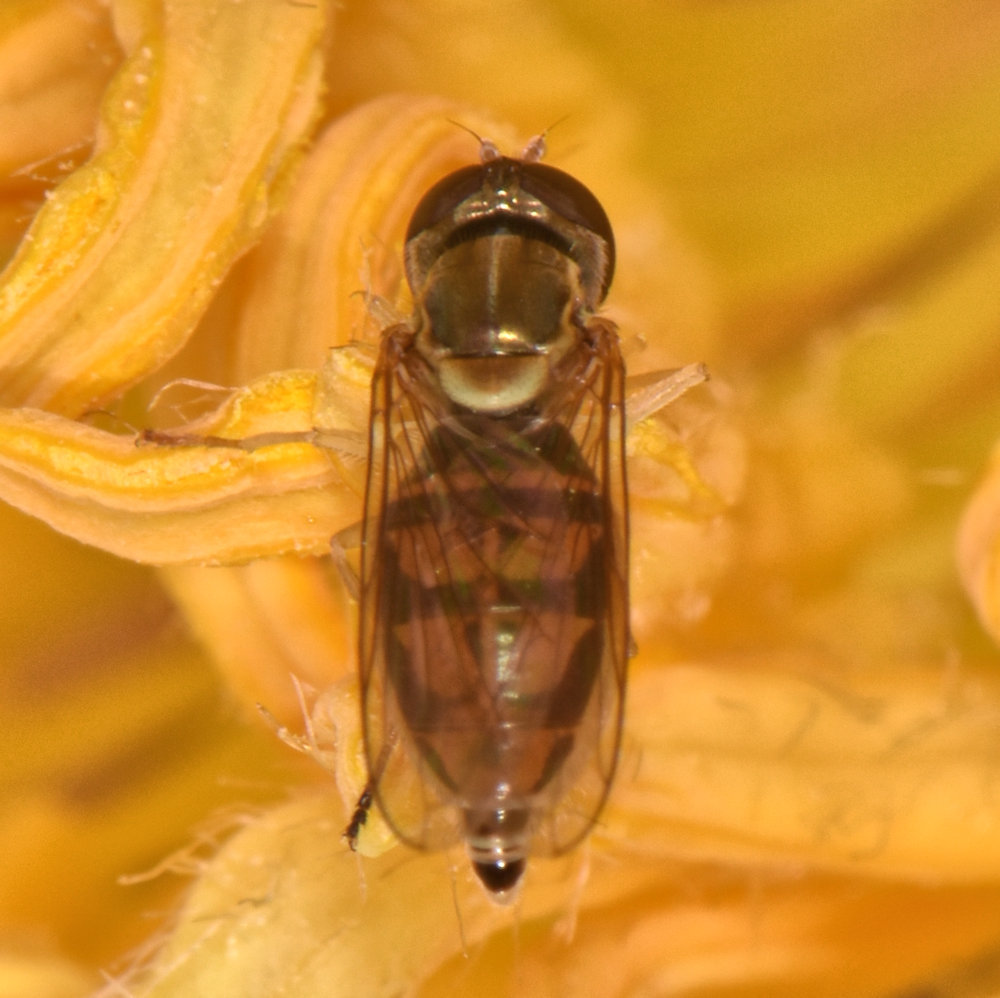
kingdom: Animalia
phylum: Arthropoda
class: Insecta
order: Diptera
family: Syrphidae
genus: Toxomerus
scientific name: Toxomerus marginatus
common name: Syrphid fly
